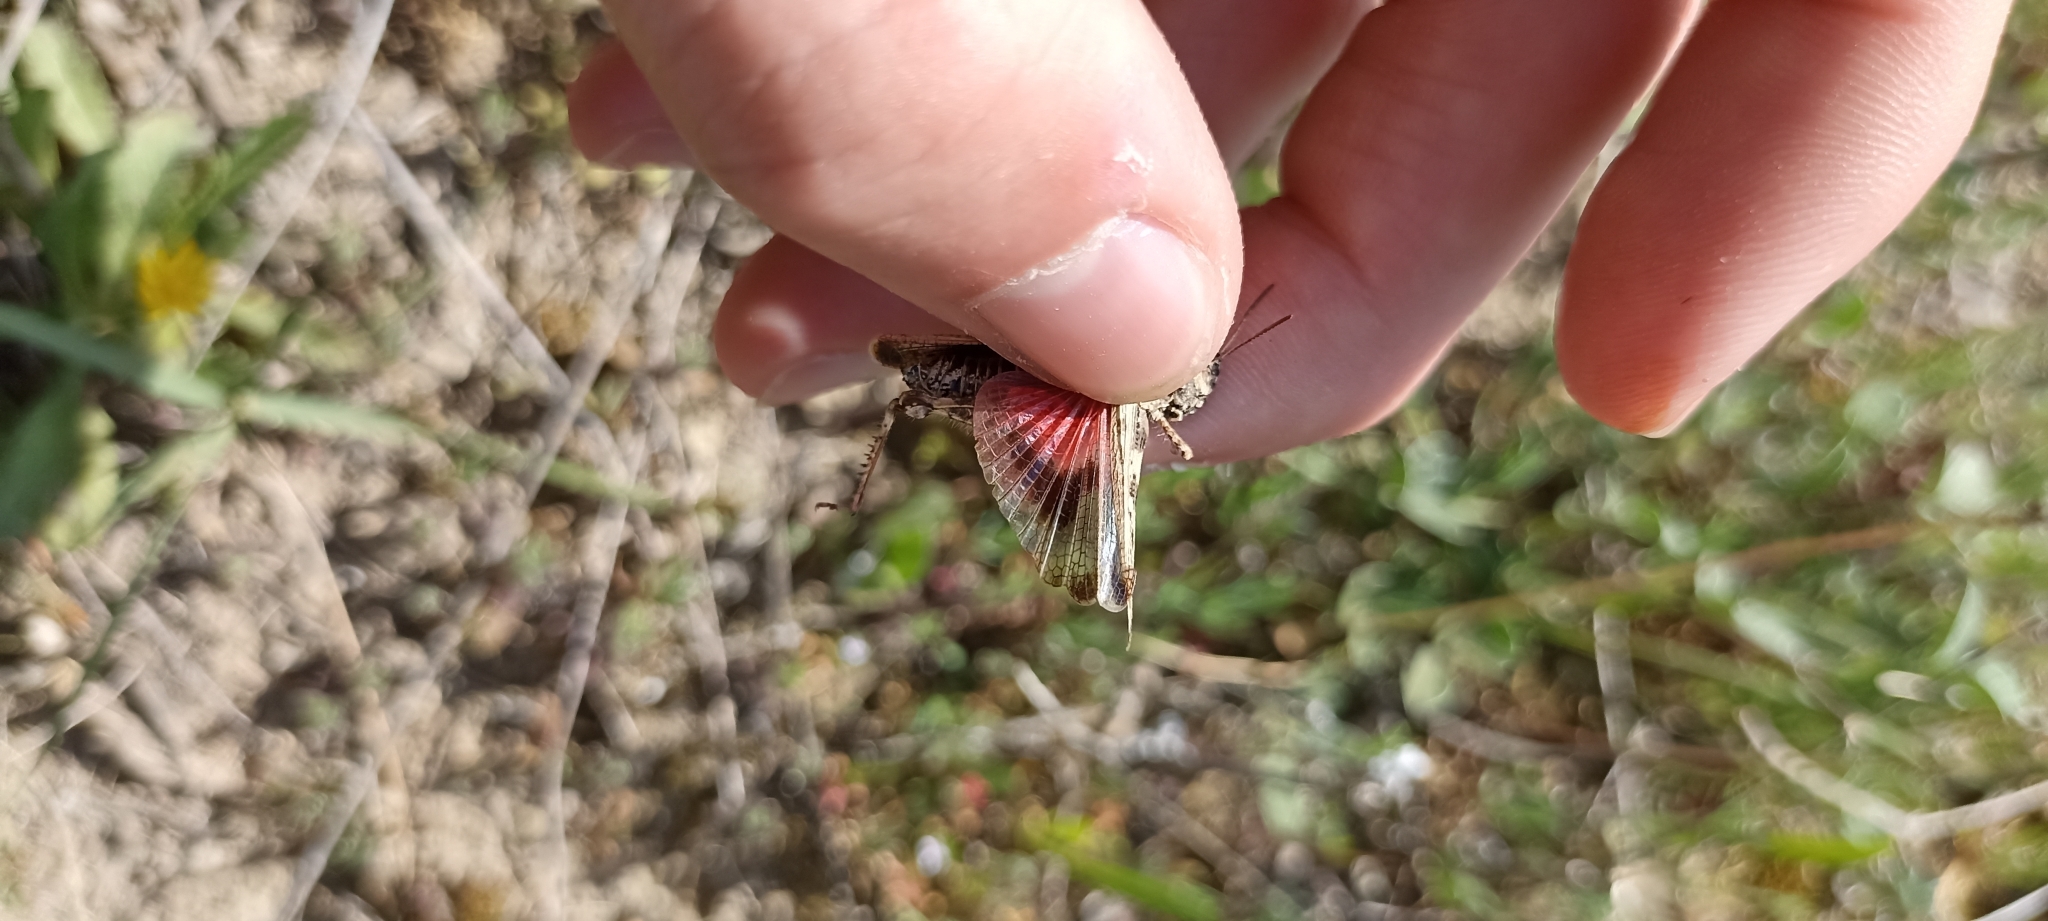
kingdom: Animalia
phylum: Arthropoda
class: Insecta
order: Orthoptera
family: Acrididae
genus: Acrotylus
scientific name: Acrotylus fischeri
